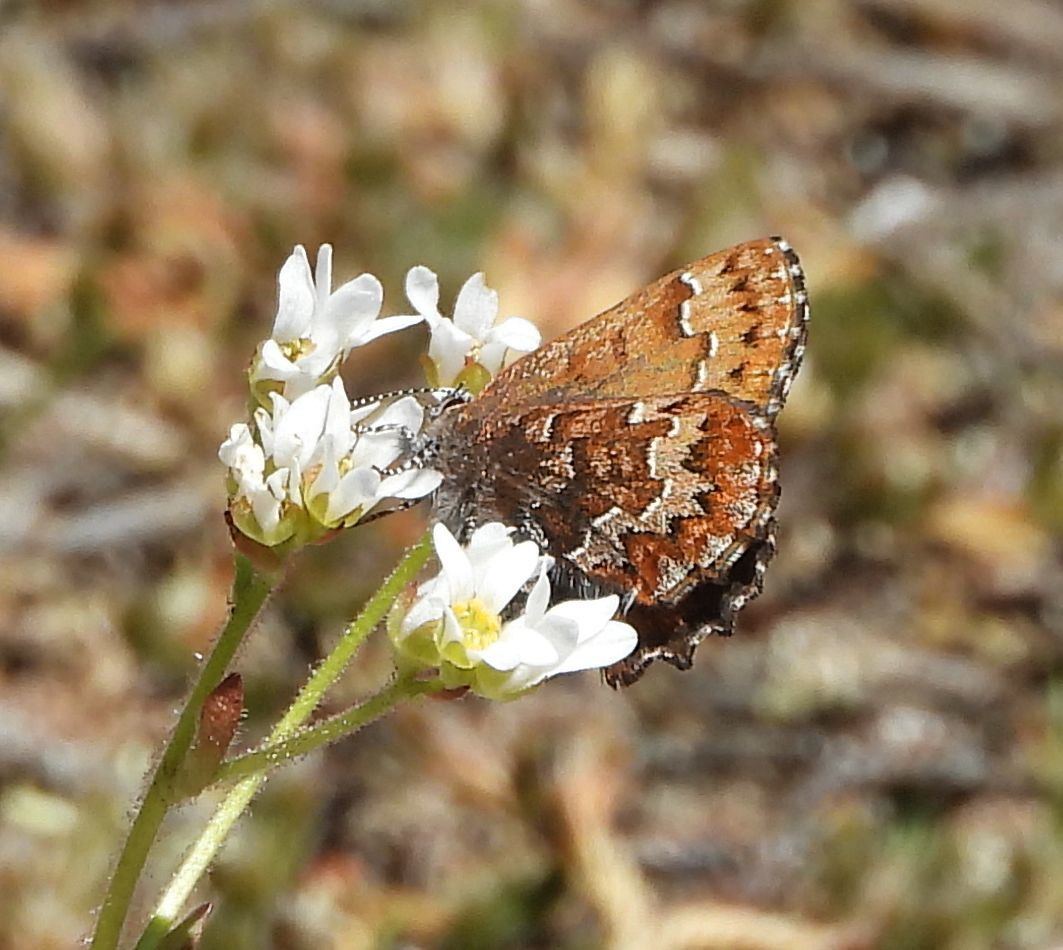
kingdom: Animalia
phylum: Arthropoda
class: Insecta
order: Lepidoptera
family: Lycaenidae
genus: Incisalia
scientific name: Incisalia niphon
